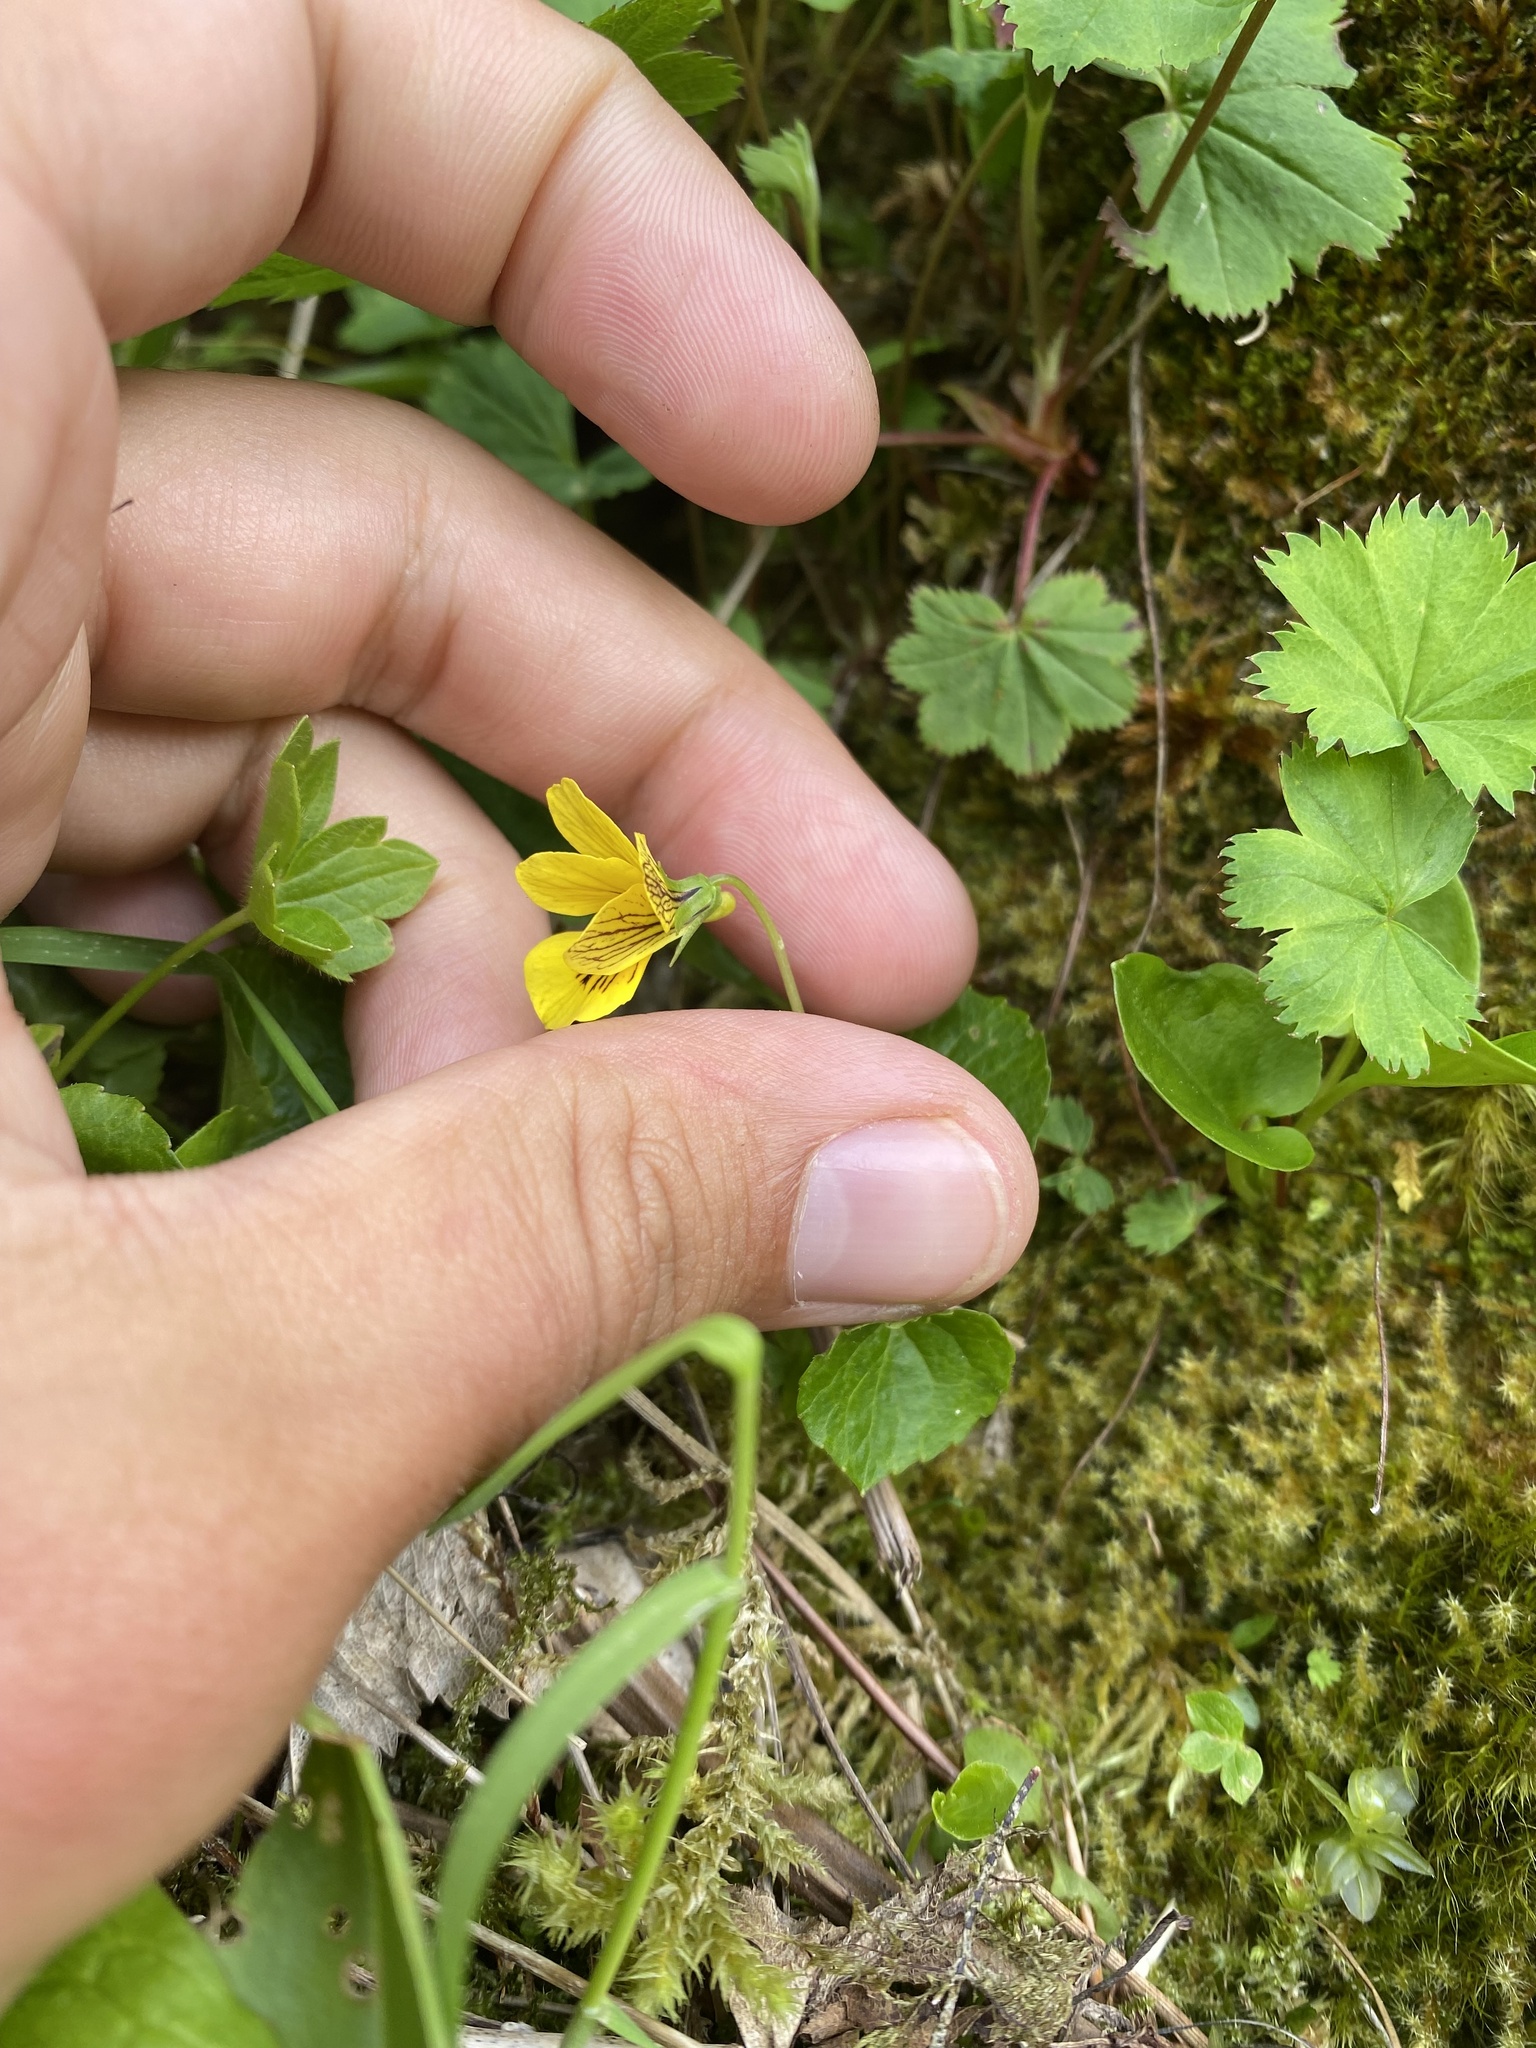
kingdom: Plantae
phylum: Tracheophyta
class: Magnoliopsida
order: Malpighiales
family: Violaceae
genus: Viola
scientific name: Viola caucasica
